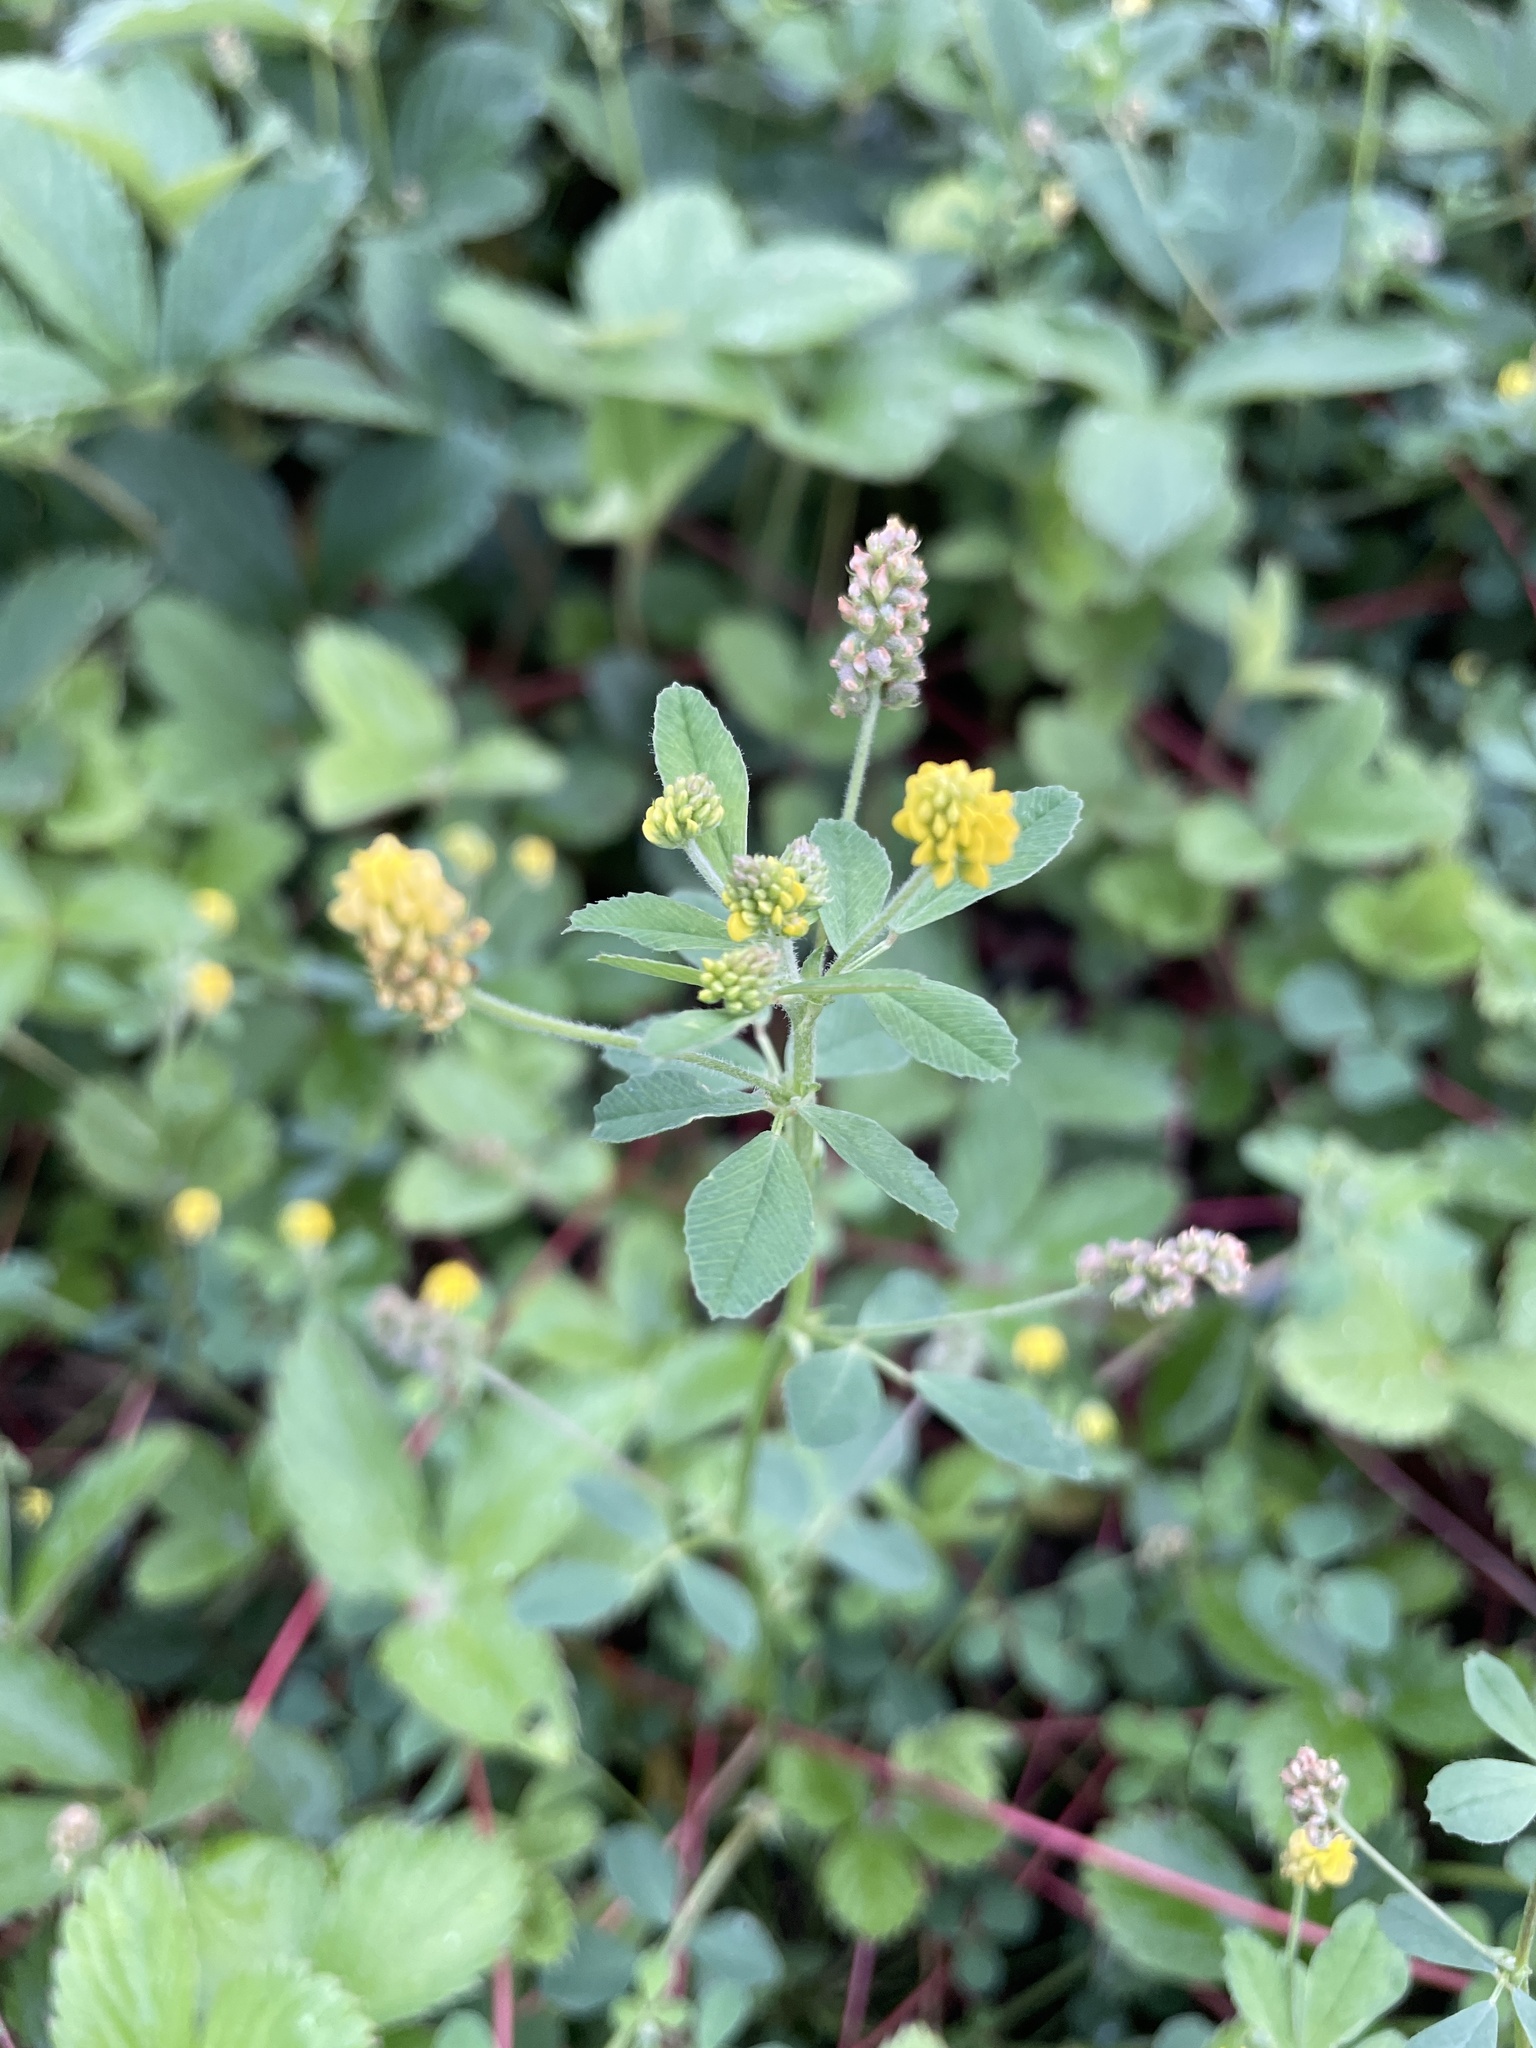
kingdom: Plantae
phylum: Tracheophyta
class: Magnoliopsida
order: Fabales
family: Fabaceae
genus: Medicago
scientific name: Medicago lupulina
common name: Black medick
